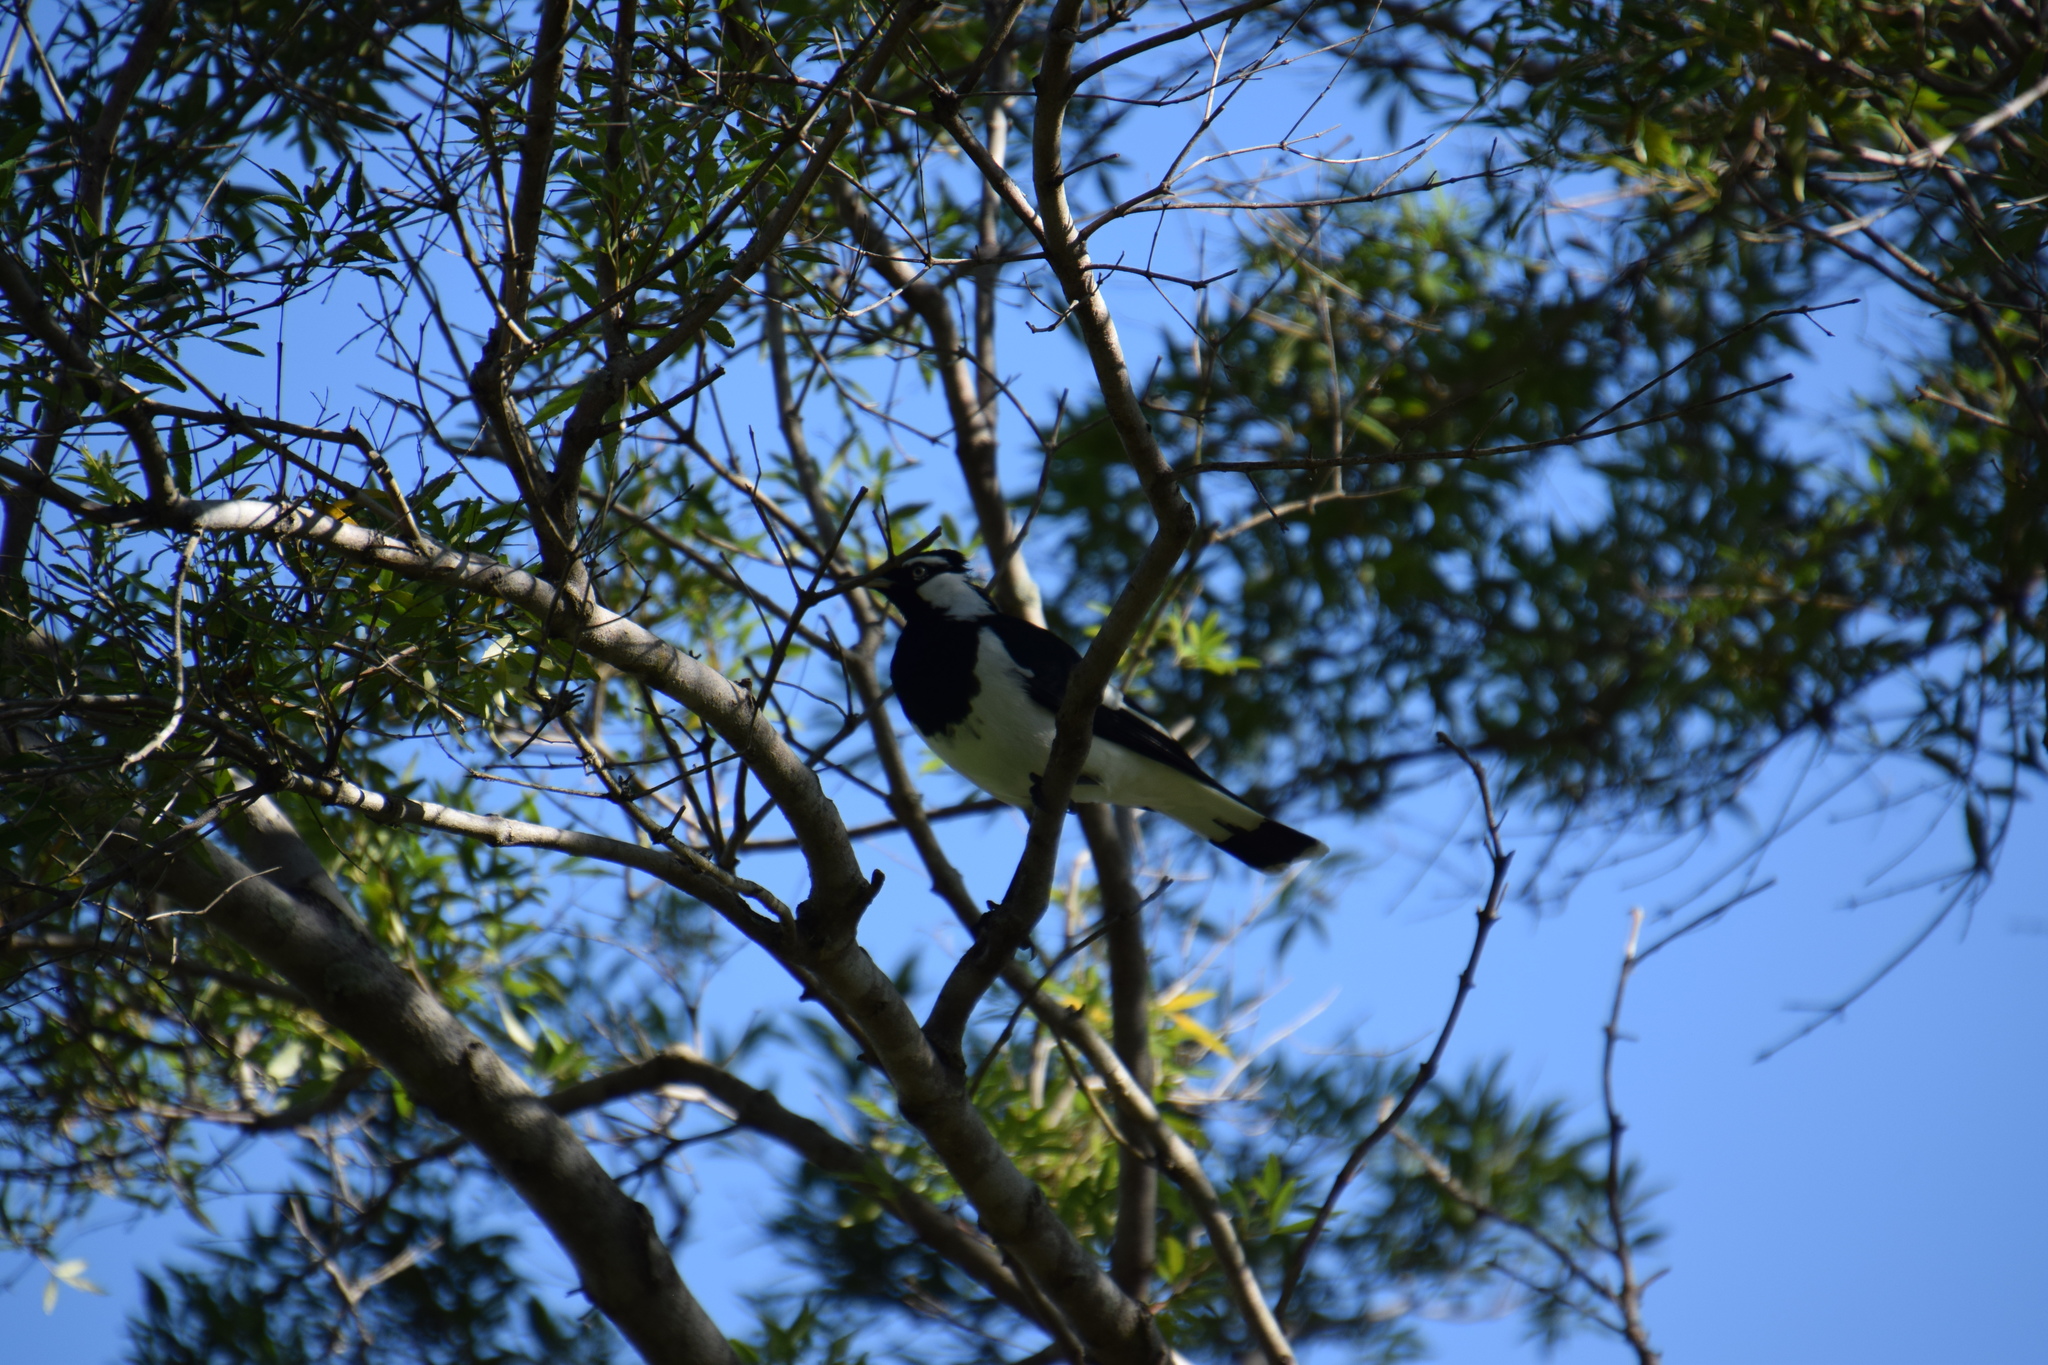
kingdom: Animalia
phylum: Chordata
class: Aves
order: Passeriformes
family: Monarchidae
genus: Grallina
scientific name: Grallina cyanoleuca
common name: Magpie-lark
